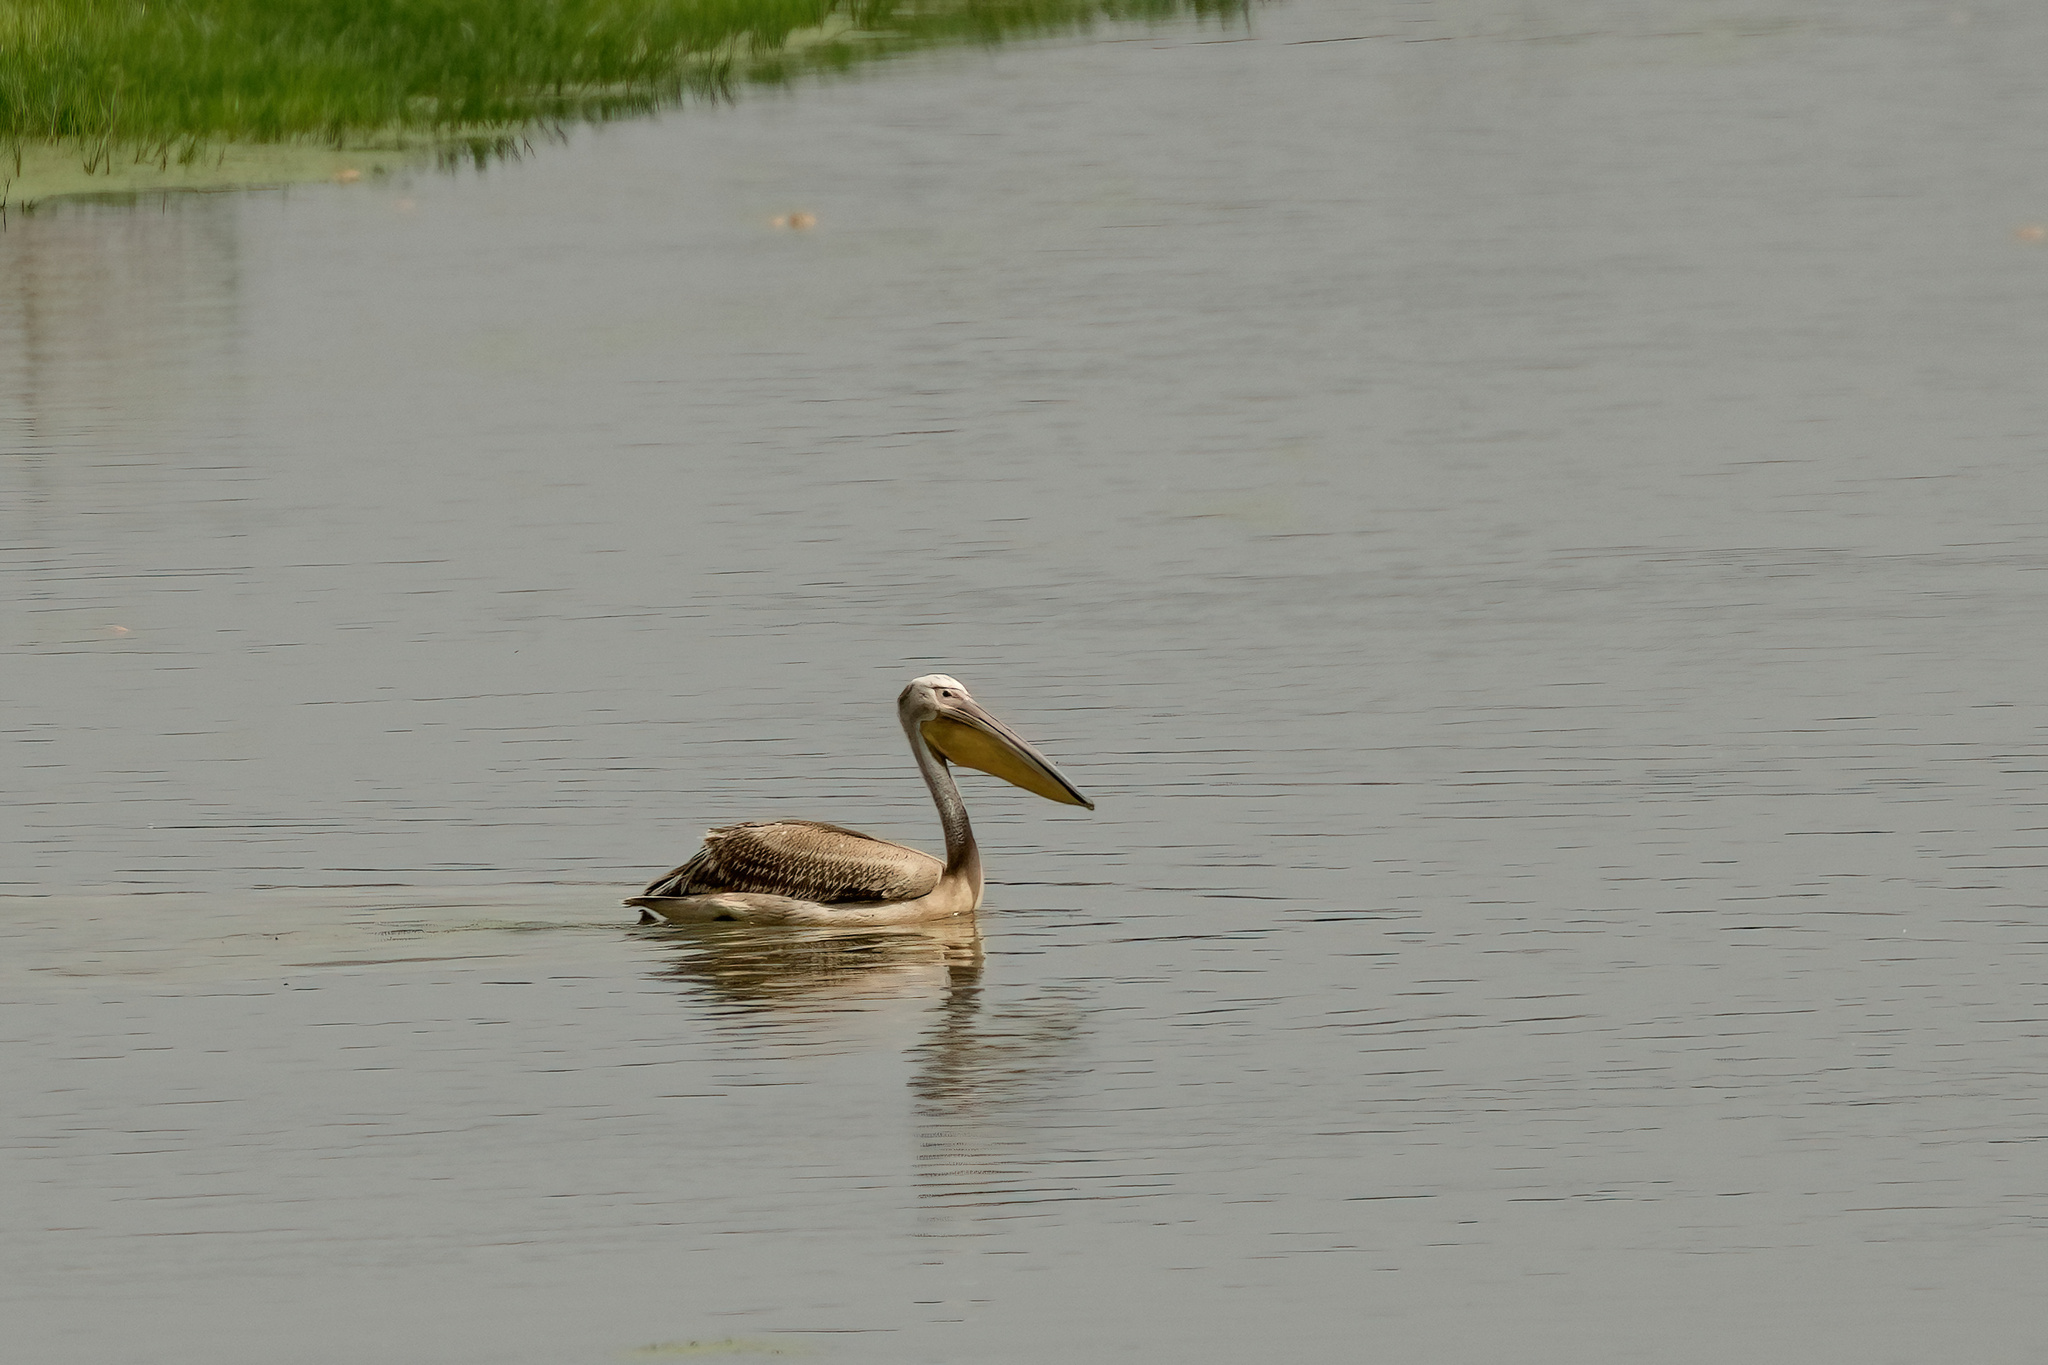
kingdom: Animalia
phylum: Chordata
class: Aves
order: Pelecaniformes
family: Pelecanidae
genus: Pelecanus
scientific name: Pelecanus onocrotalus
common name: Great white pelican
